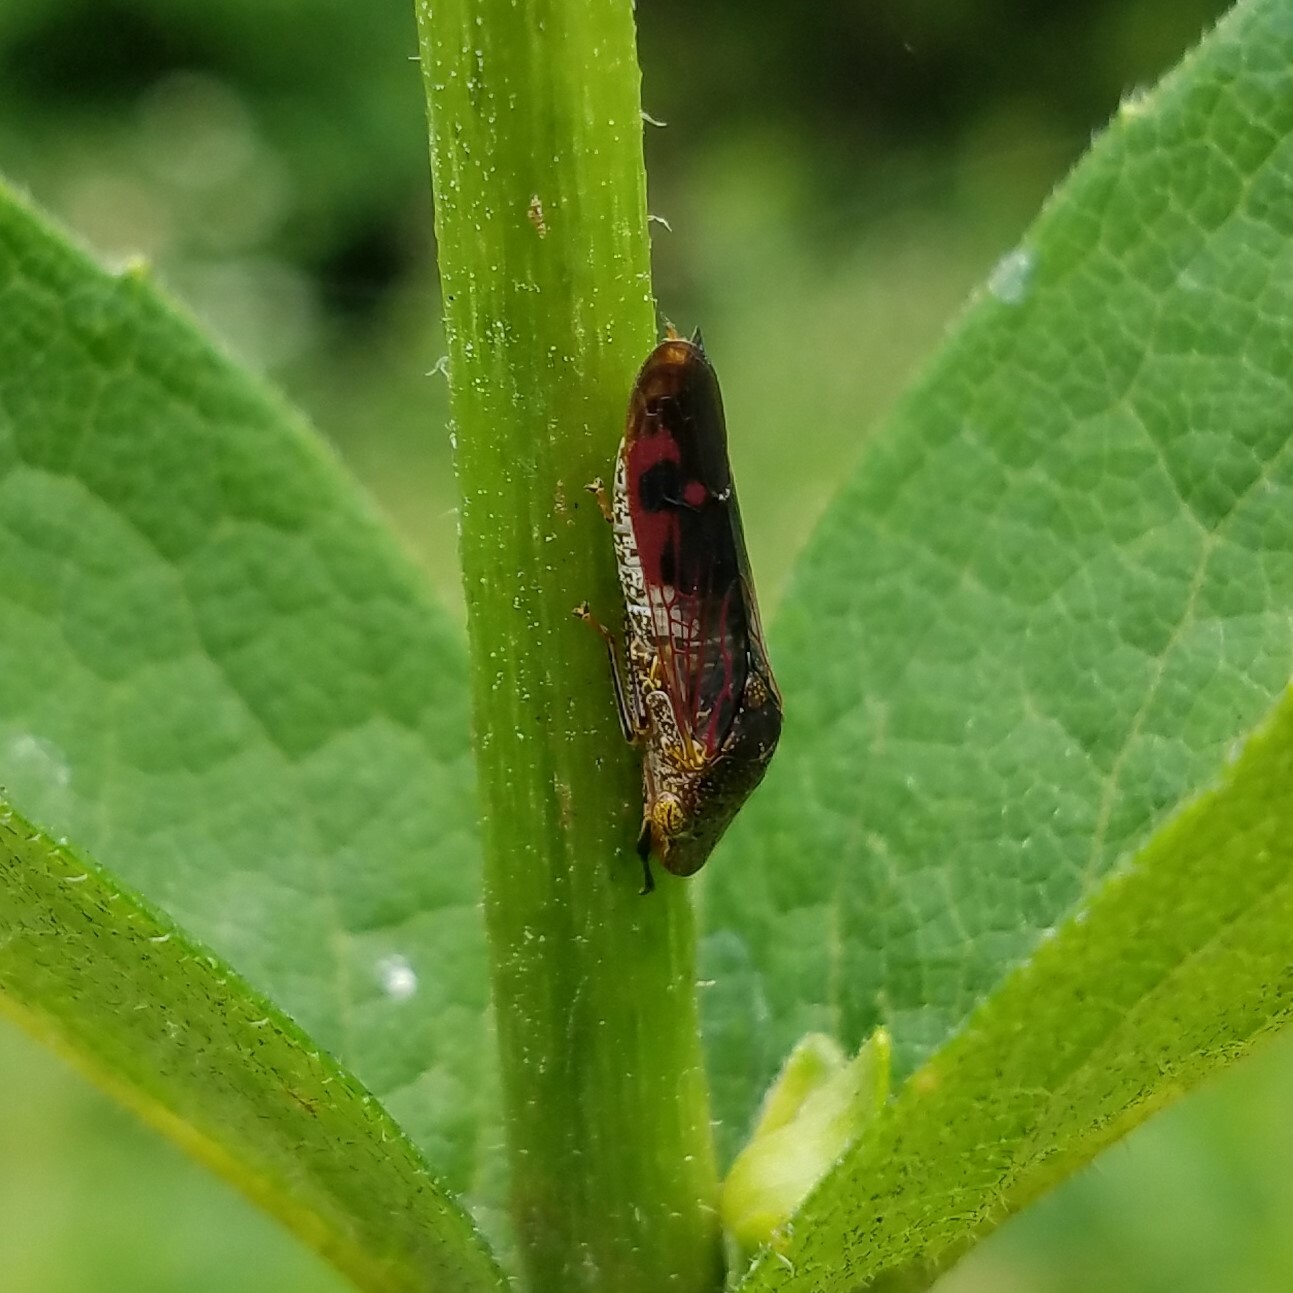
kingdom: Animalia
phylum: Arthropoda
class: Insecta
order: Hemiptera
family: Cicadellidae
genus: Homalodisca
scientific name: Homalodisca vitripennis
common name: Glassy-winged sharpshooter
